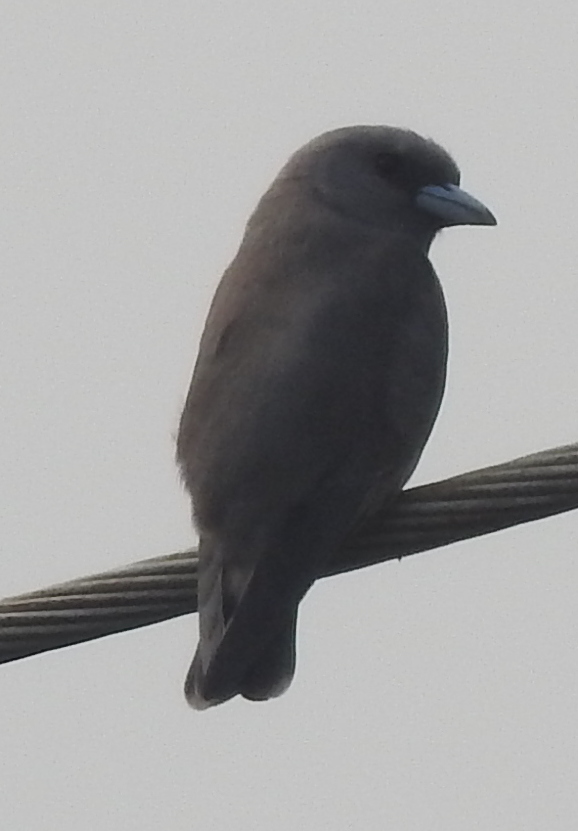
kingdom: Animalia
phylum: Chordata
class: Aves
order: Passeriformes
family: Artamidae
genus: Artamus
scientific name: Artamus fuscus
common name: Ashy woodswallow
